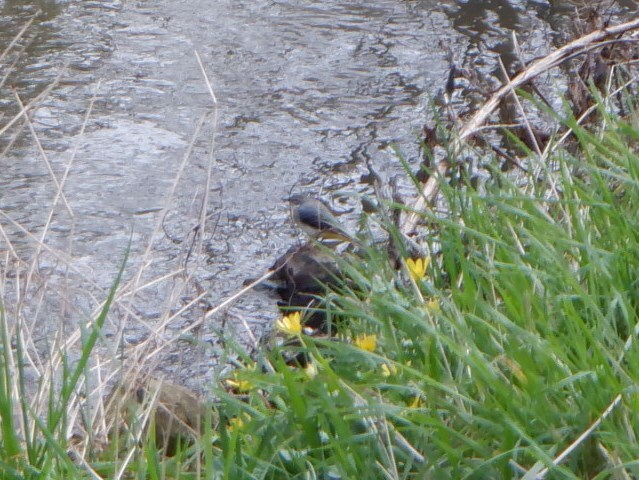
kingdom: Animalia
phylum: Chordata
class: Aves
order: Passeriformes
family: Motacillidae
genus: Motacilla
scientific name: Motacilla cinerea
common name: Grey wagtail
